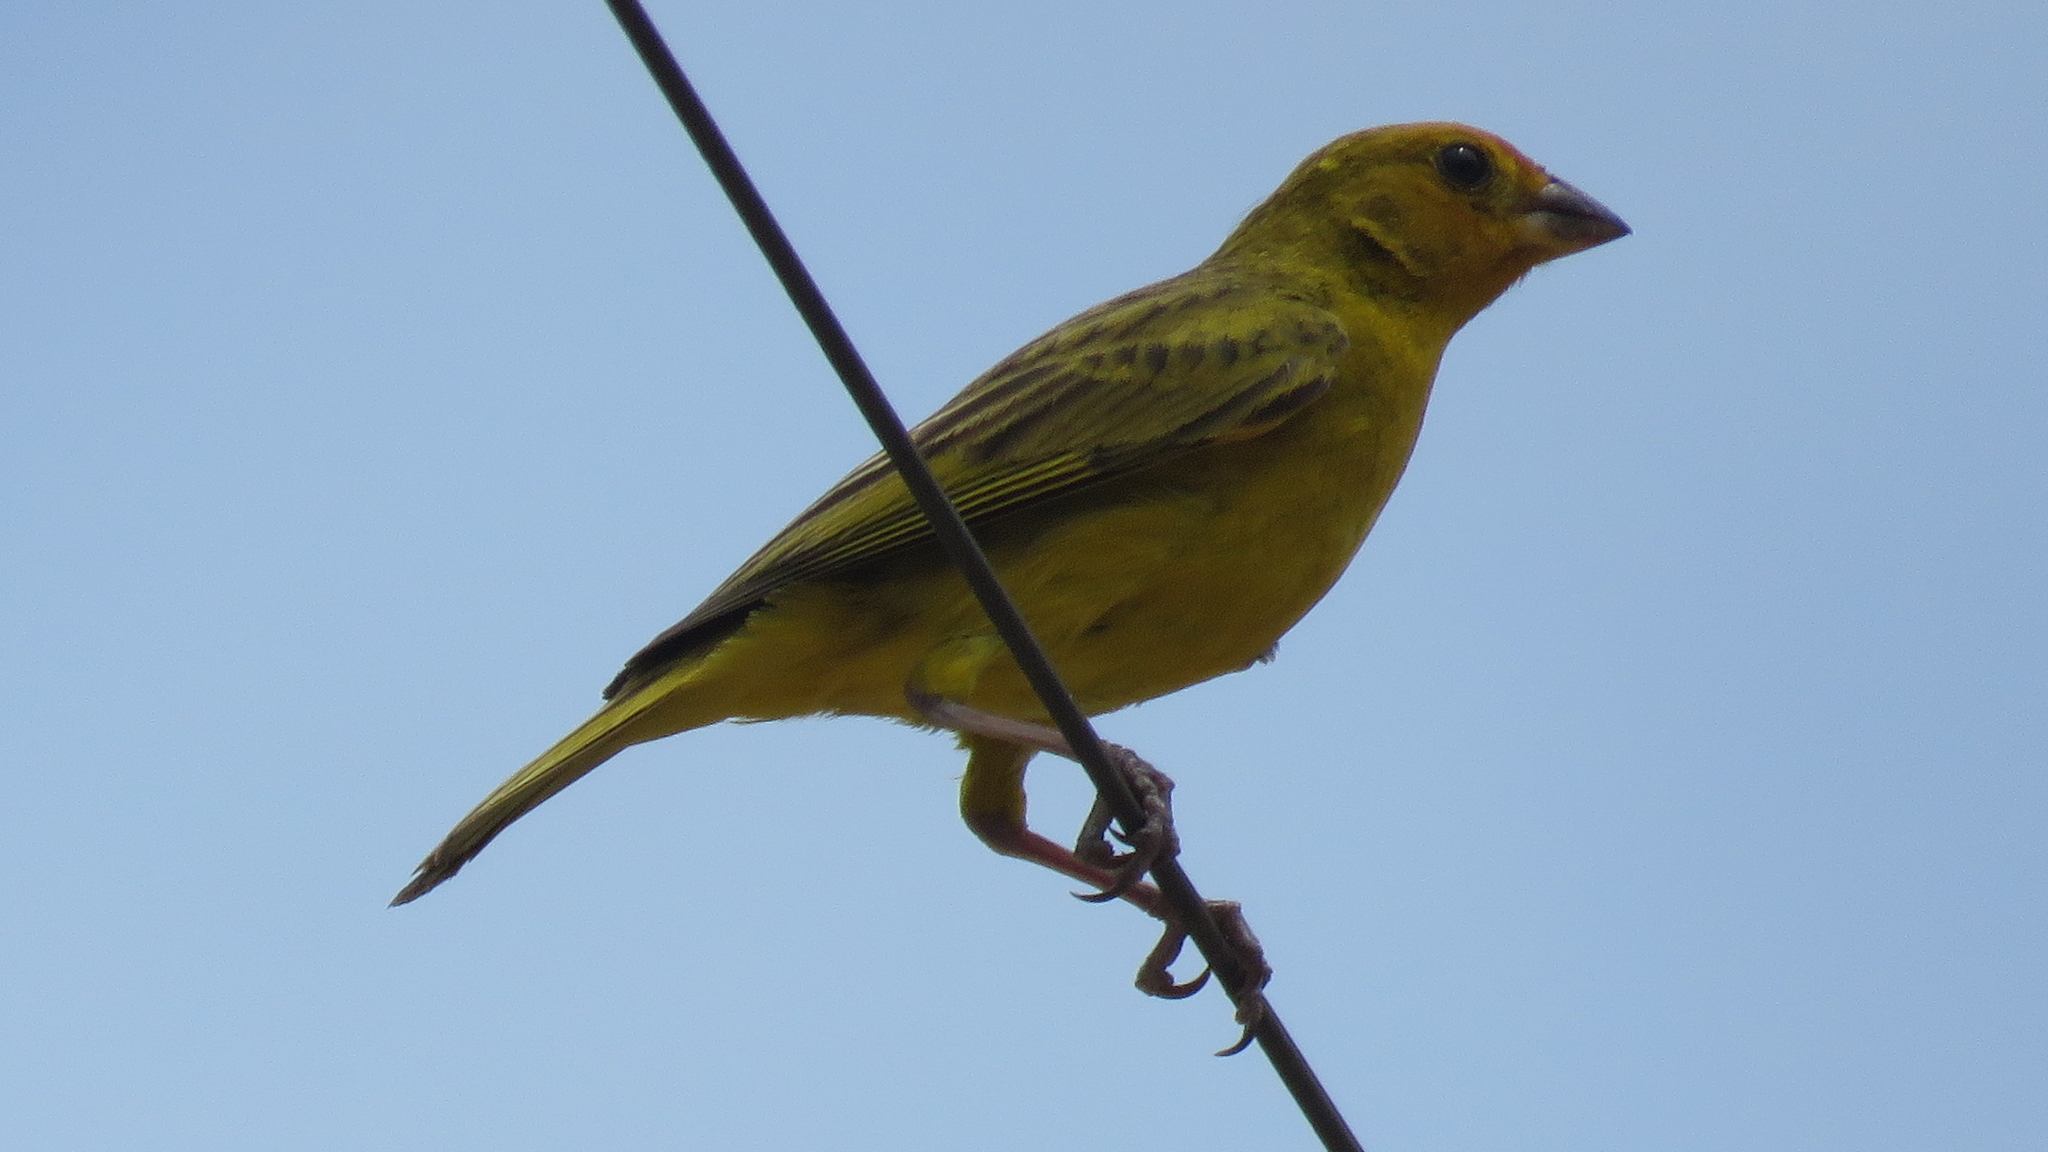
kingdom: Animalia
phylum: Chordata
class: Aves
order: Passeriformes
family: Thraupidae
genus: Sicalis
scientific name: Sicalis flaveola
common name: Saffron finch
